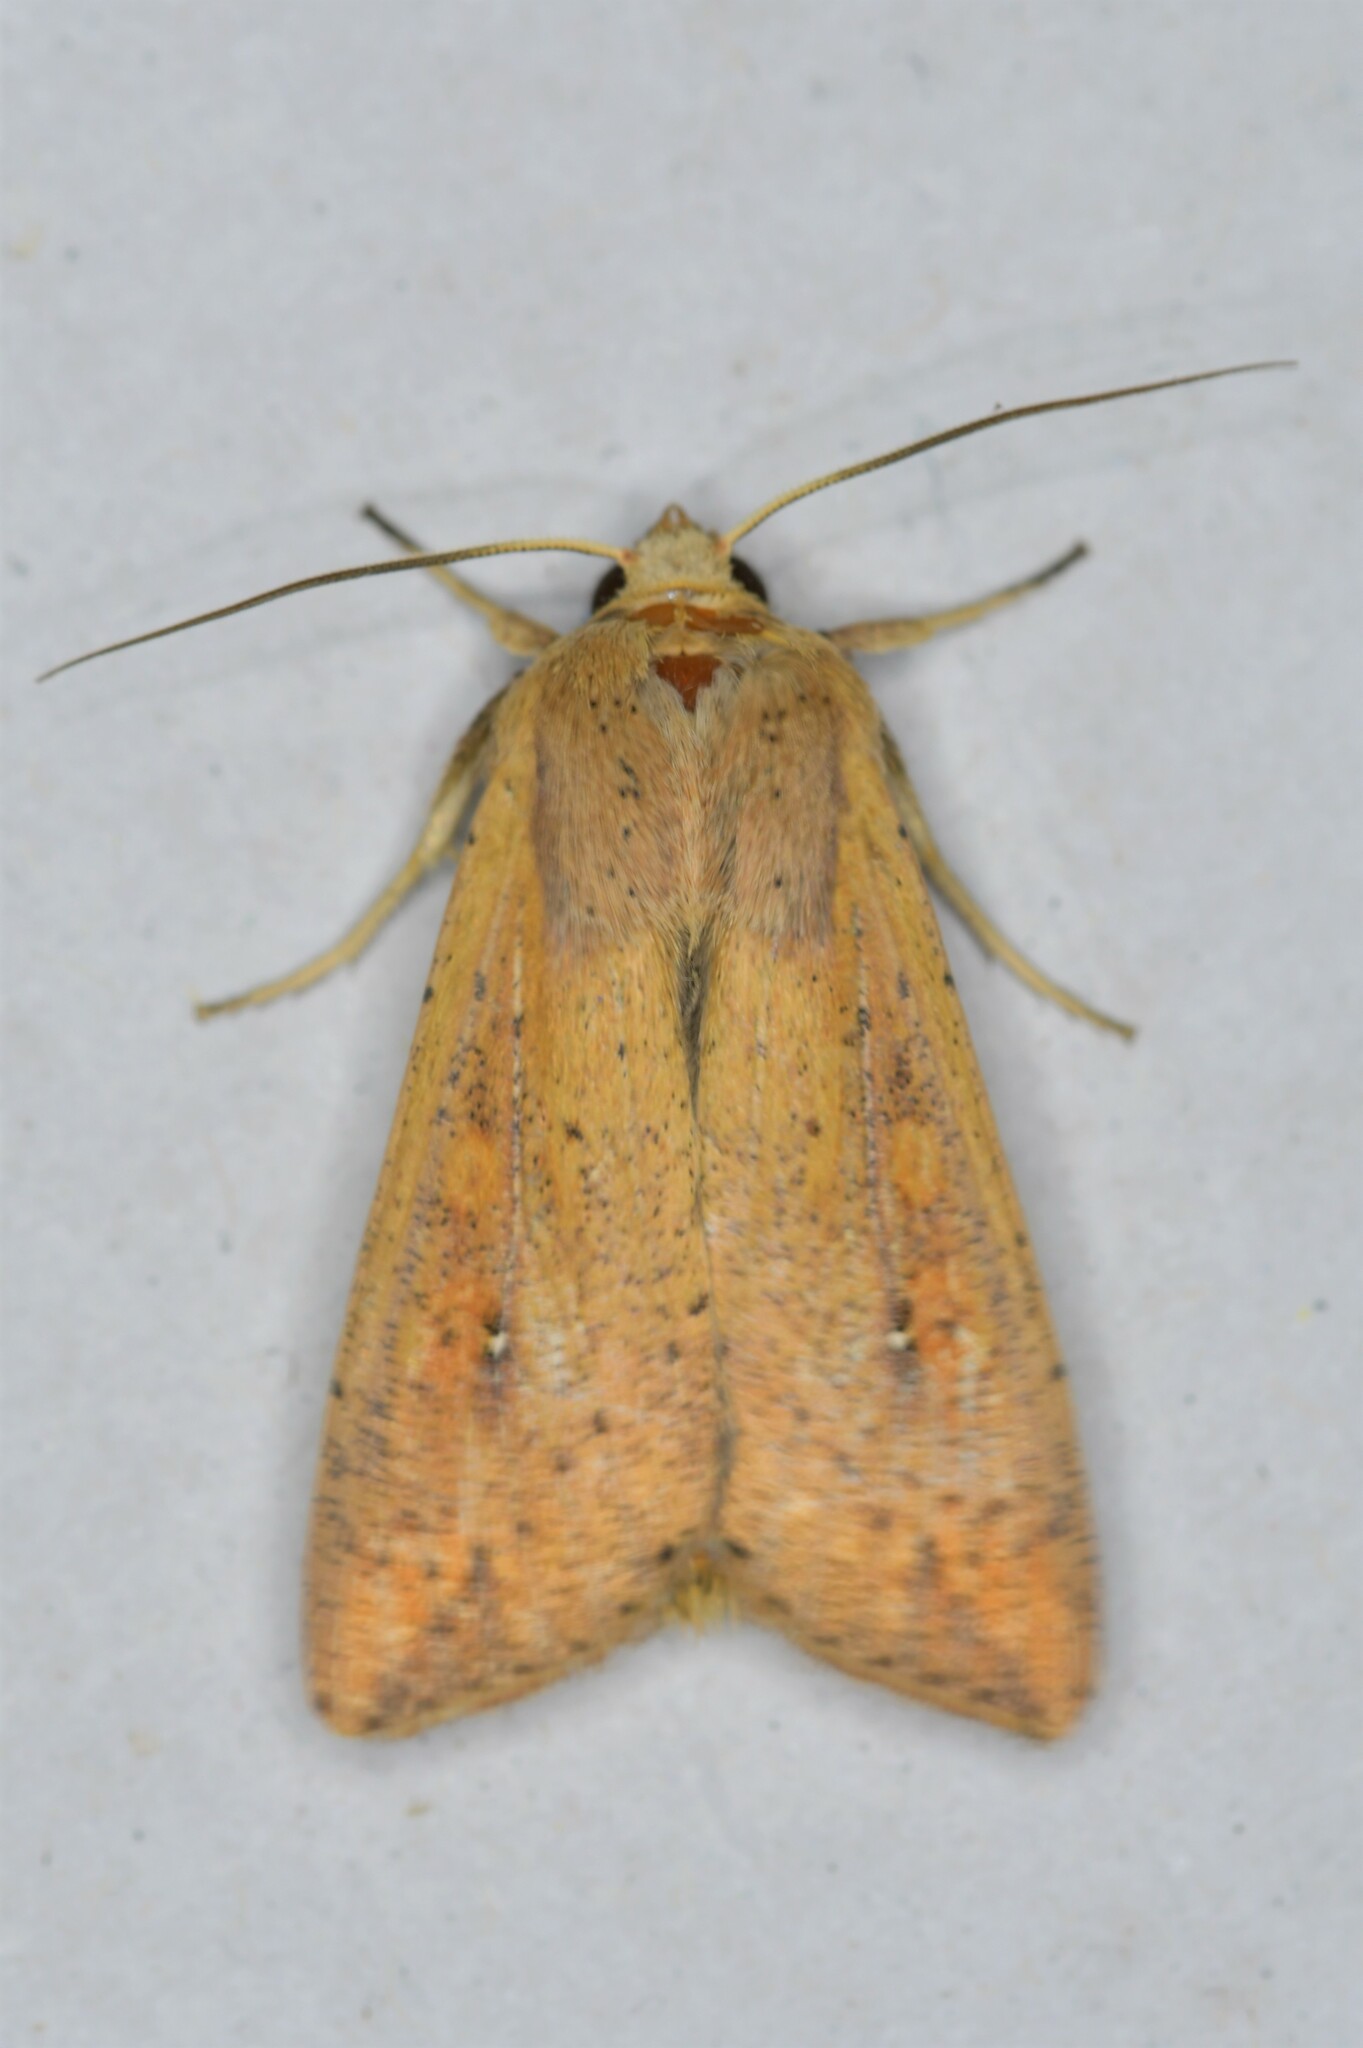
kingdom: Animalia
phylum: Arthropoda
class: Insecta
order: Lepidoptera
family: Noctuidae
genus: Mythimna
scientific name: Mythimna unipuncta
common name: White-speck
